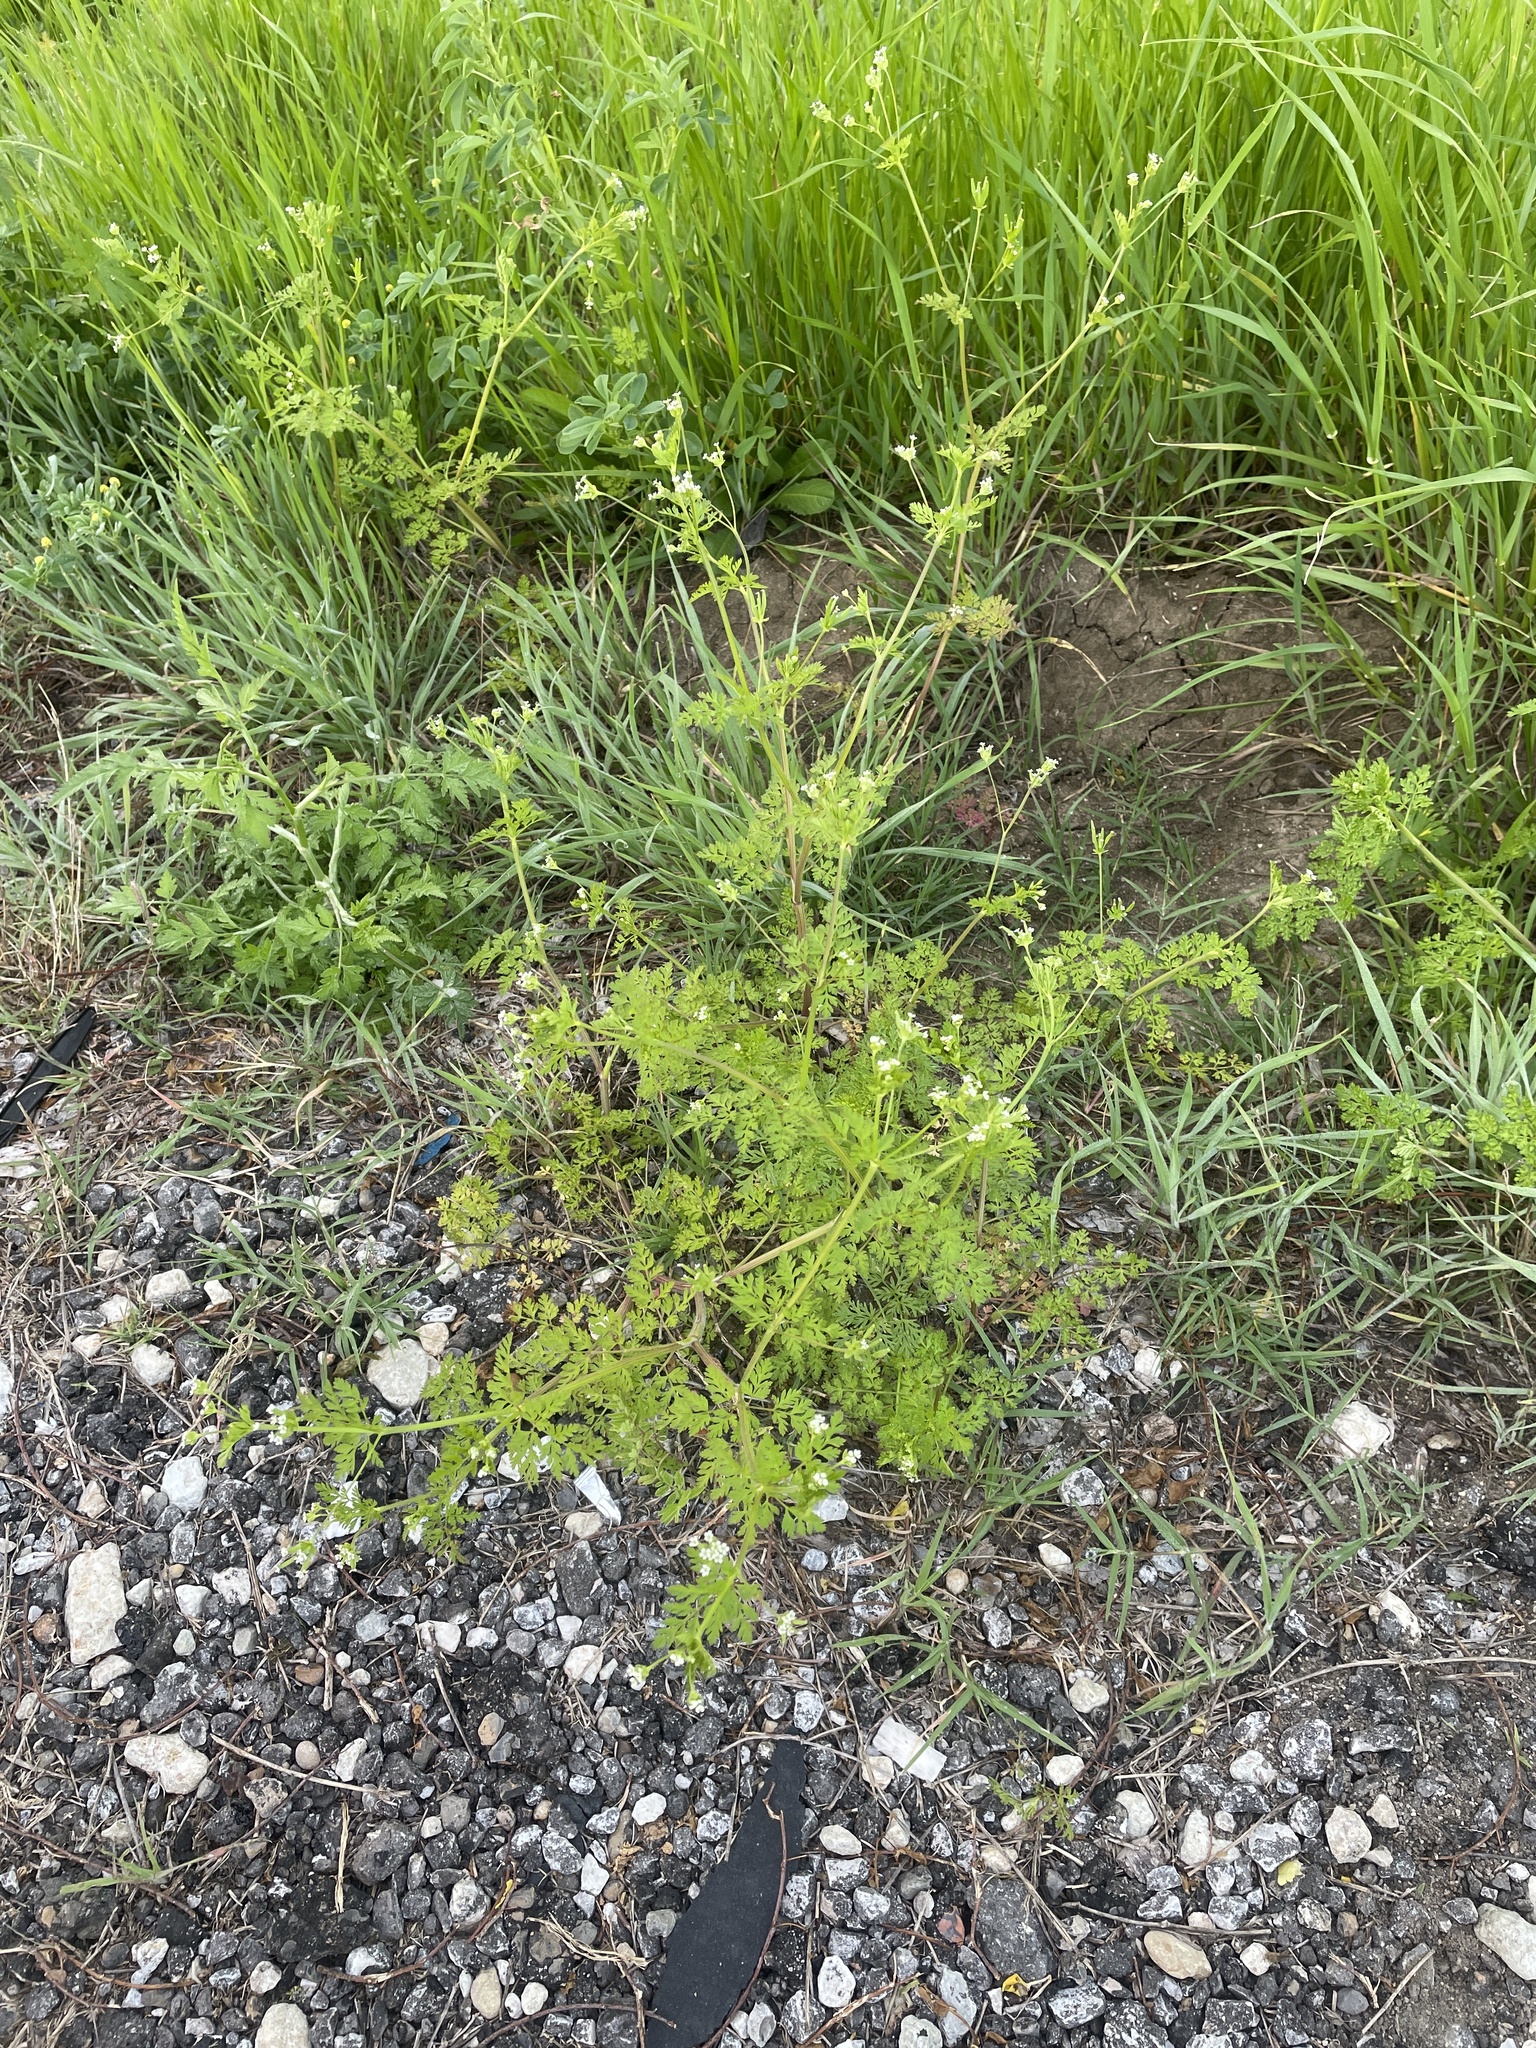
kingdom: Plantae
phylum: Tracheophyta
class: Magnoliopsida
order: Apiales
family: Apiaceae
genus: Chaerophyllum
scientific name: Chaerophyllum tainturieri
